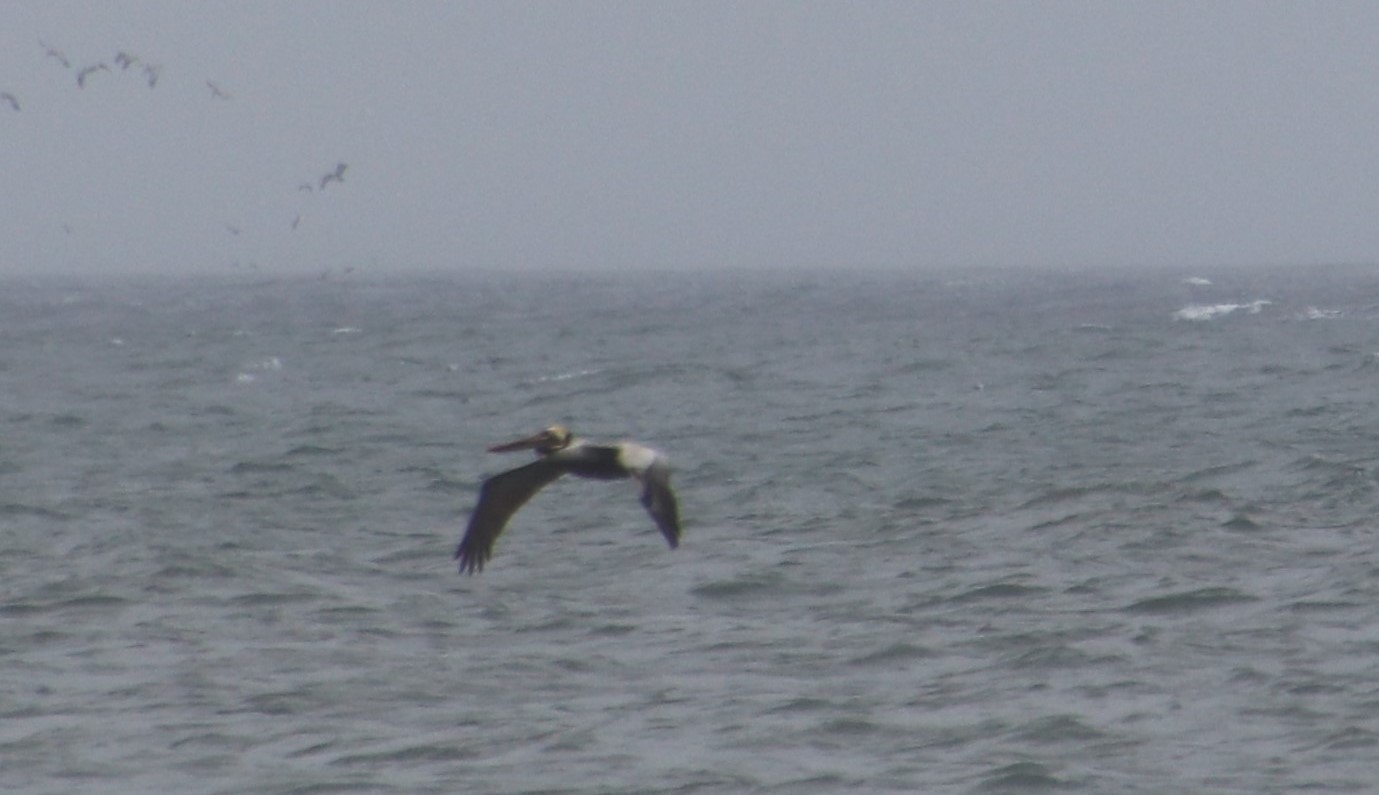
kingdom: Animalia
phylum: Chordata
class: Aves
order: Pelecaniformes
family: Pelecanidae
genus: Pelecanus
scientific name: Pelecanus occidentalis
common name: Brown pelican
